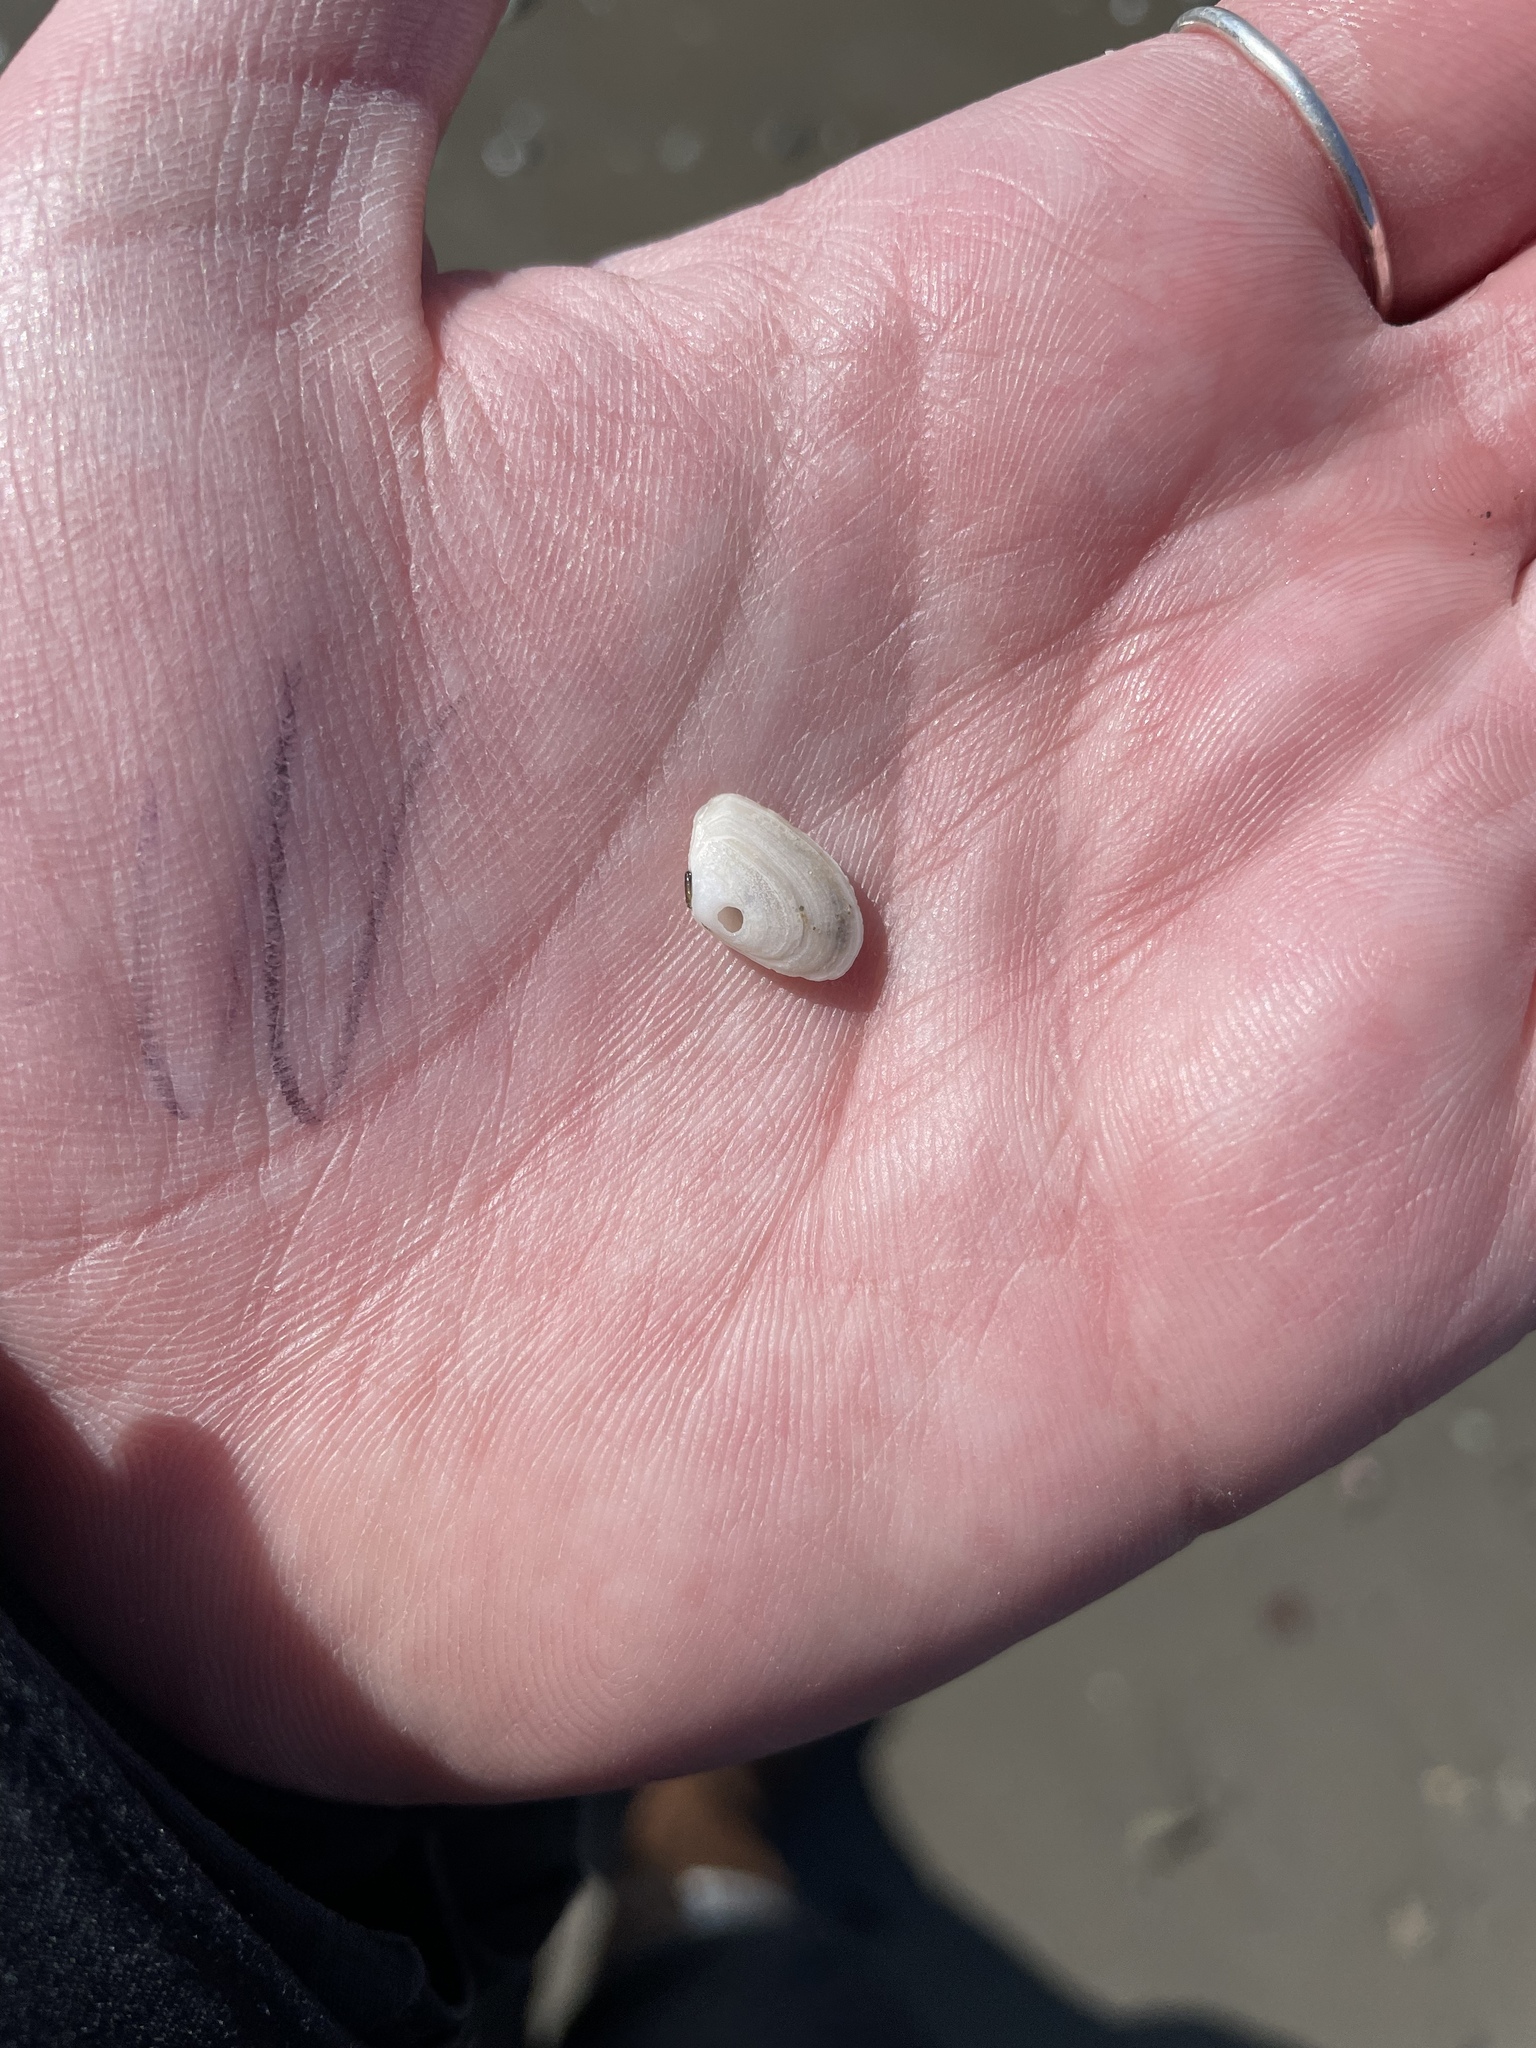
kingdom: Animalia
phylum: Mollusca
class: Bivalvia
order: Cardiida
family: Tellinidae
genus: Ameritella
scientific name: Ameritella agilis
